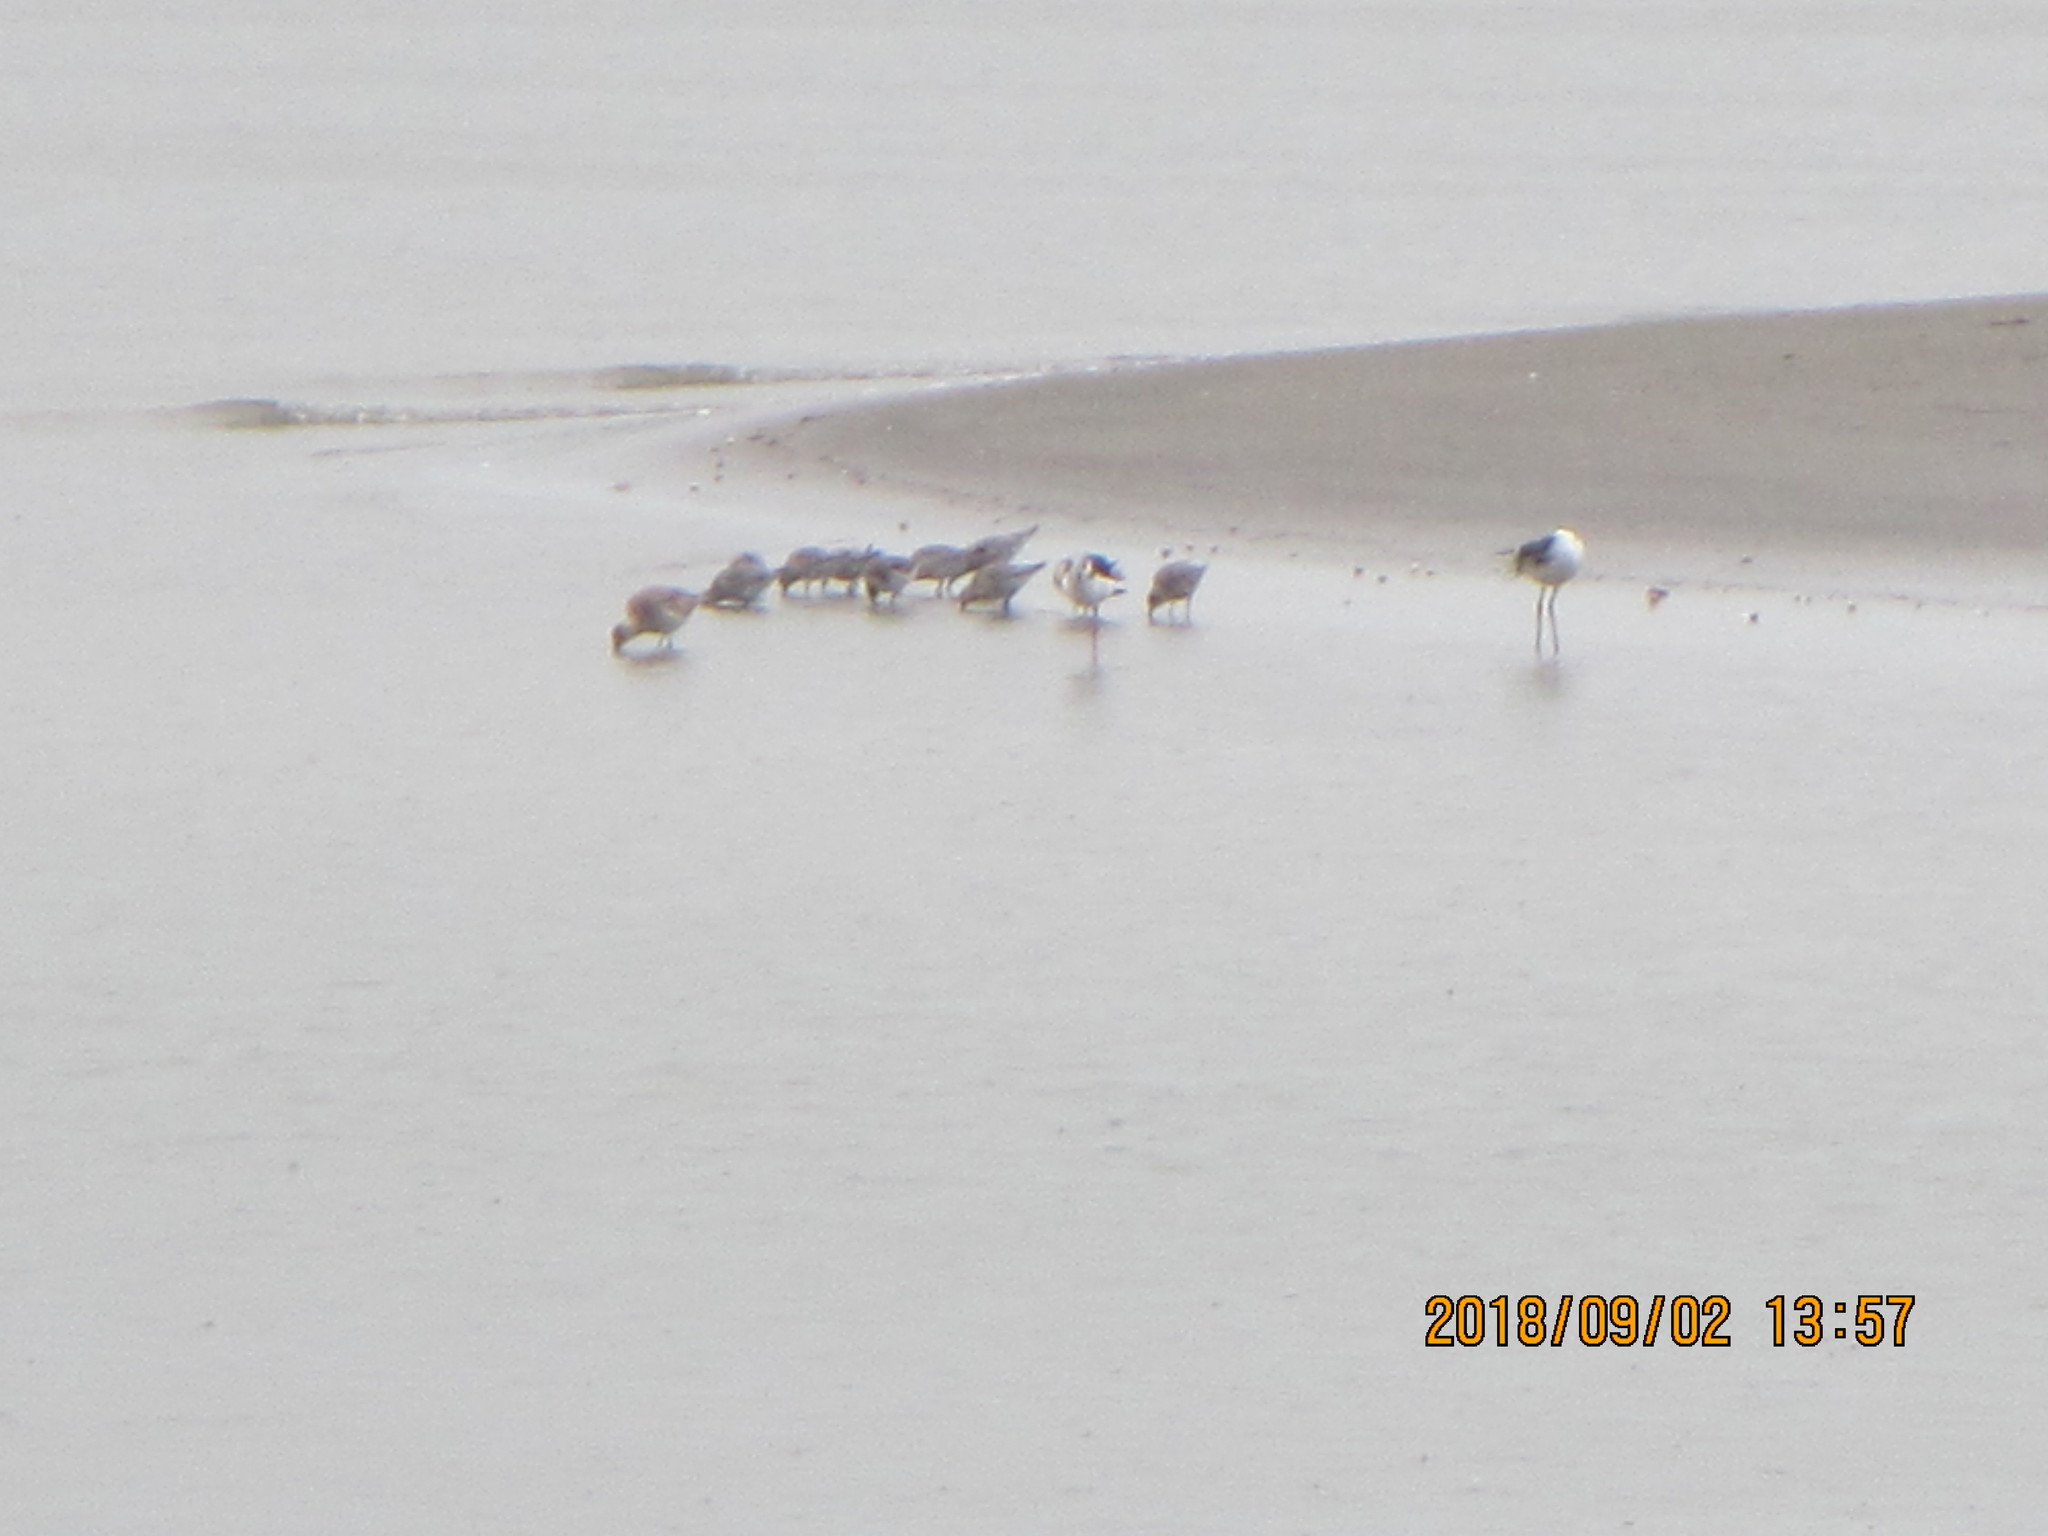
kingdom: Animalia
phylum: Chordata
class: Aves
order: Charadriiformes
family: Scolopacidae
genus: Limosa
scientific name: Limosa lapponica
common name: Bar-tailed godwit
